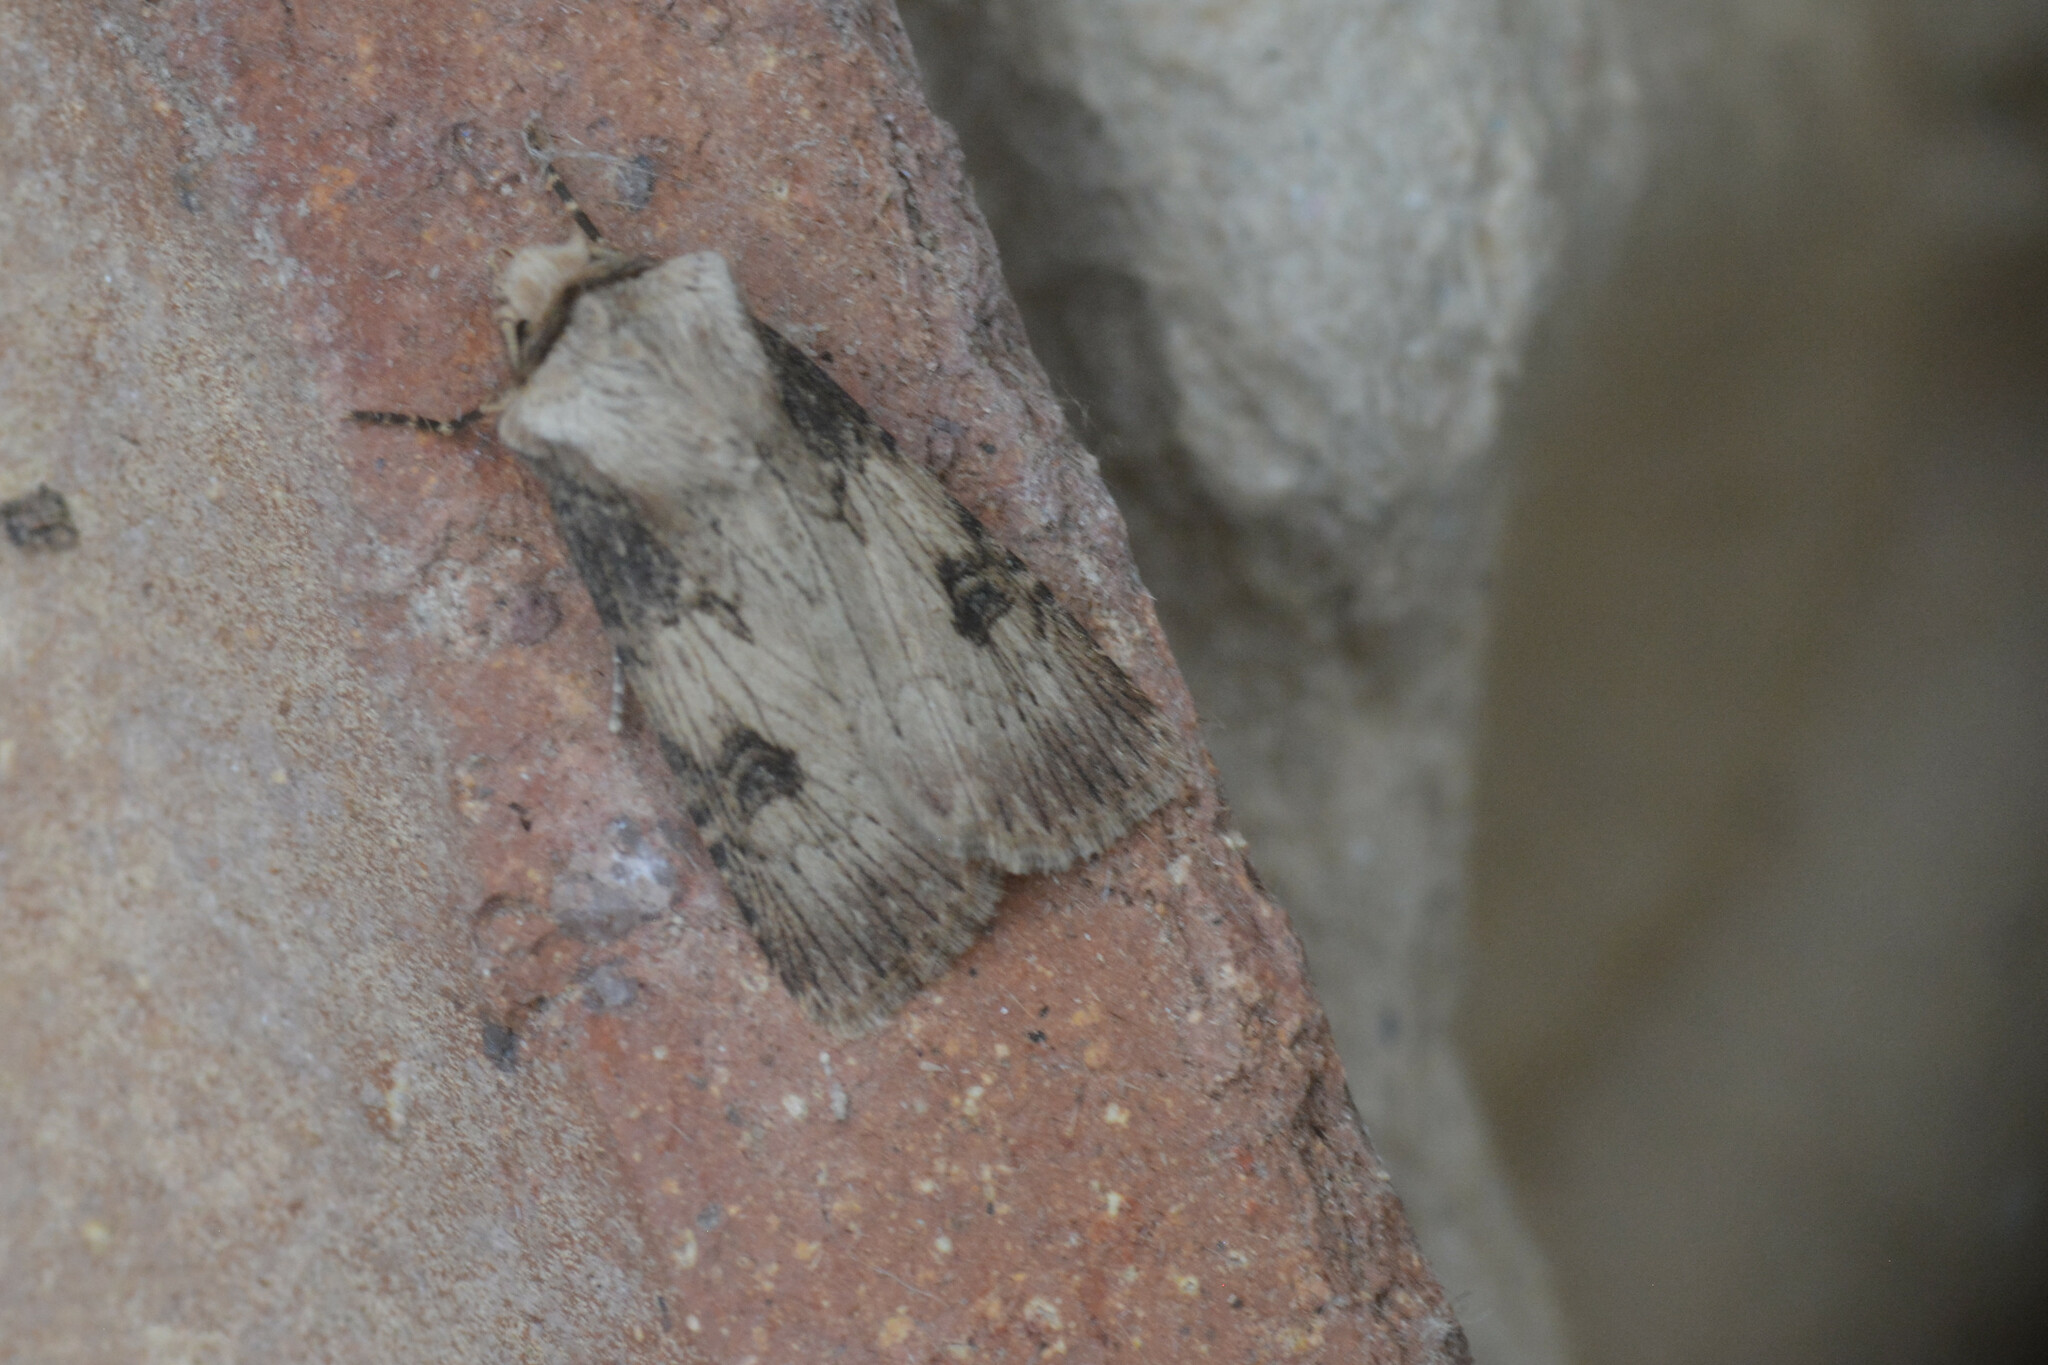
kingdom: Animalia
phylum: Arthropoda
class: Insecta
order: Lepidoptera
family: Noctuidae
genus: Agrotis
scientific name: Agrotis puta
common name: Shuttle-shaped dart
